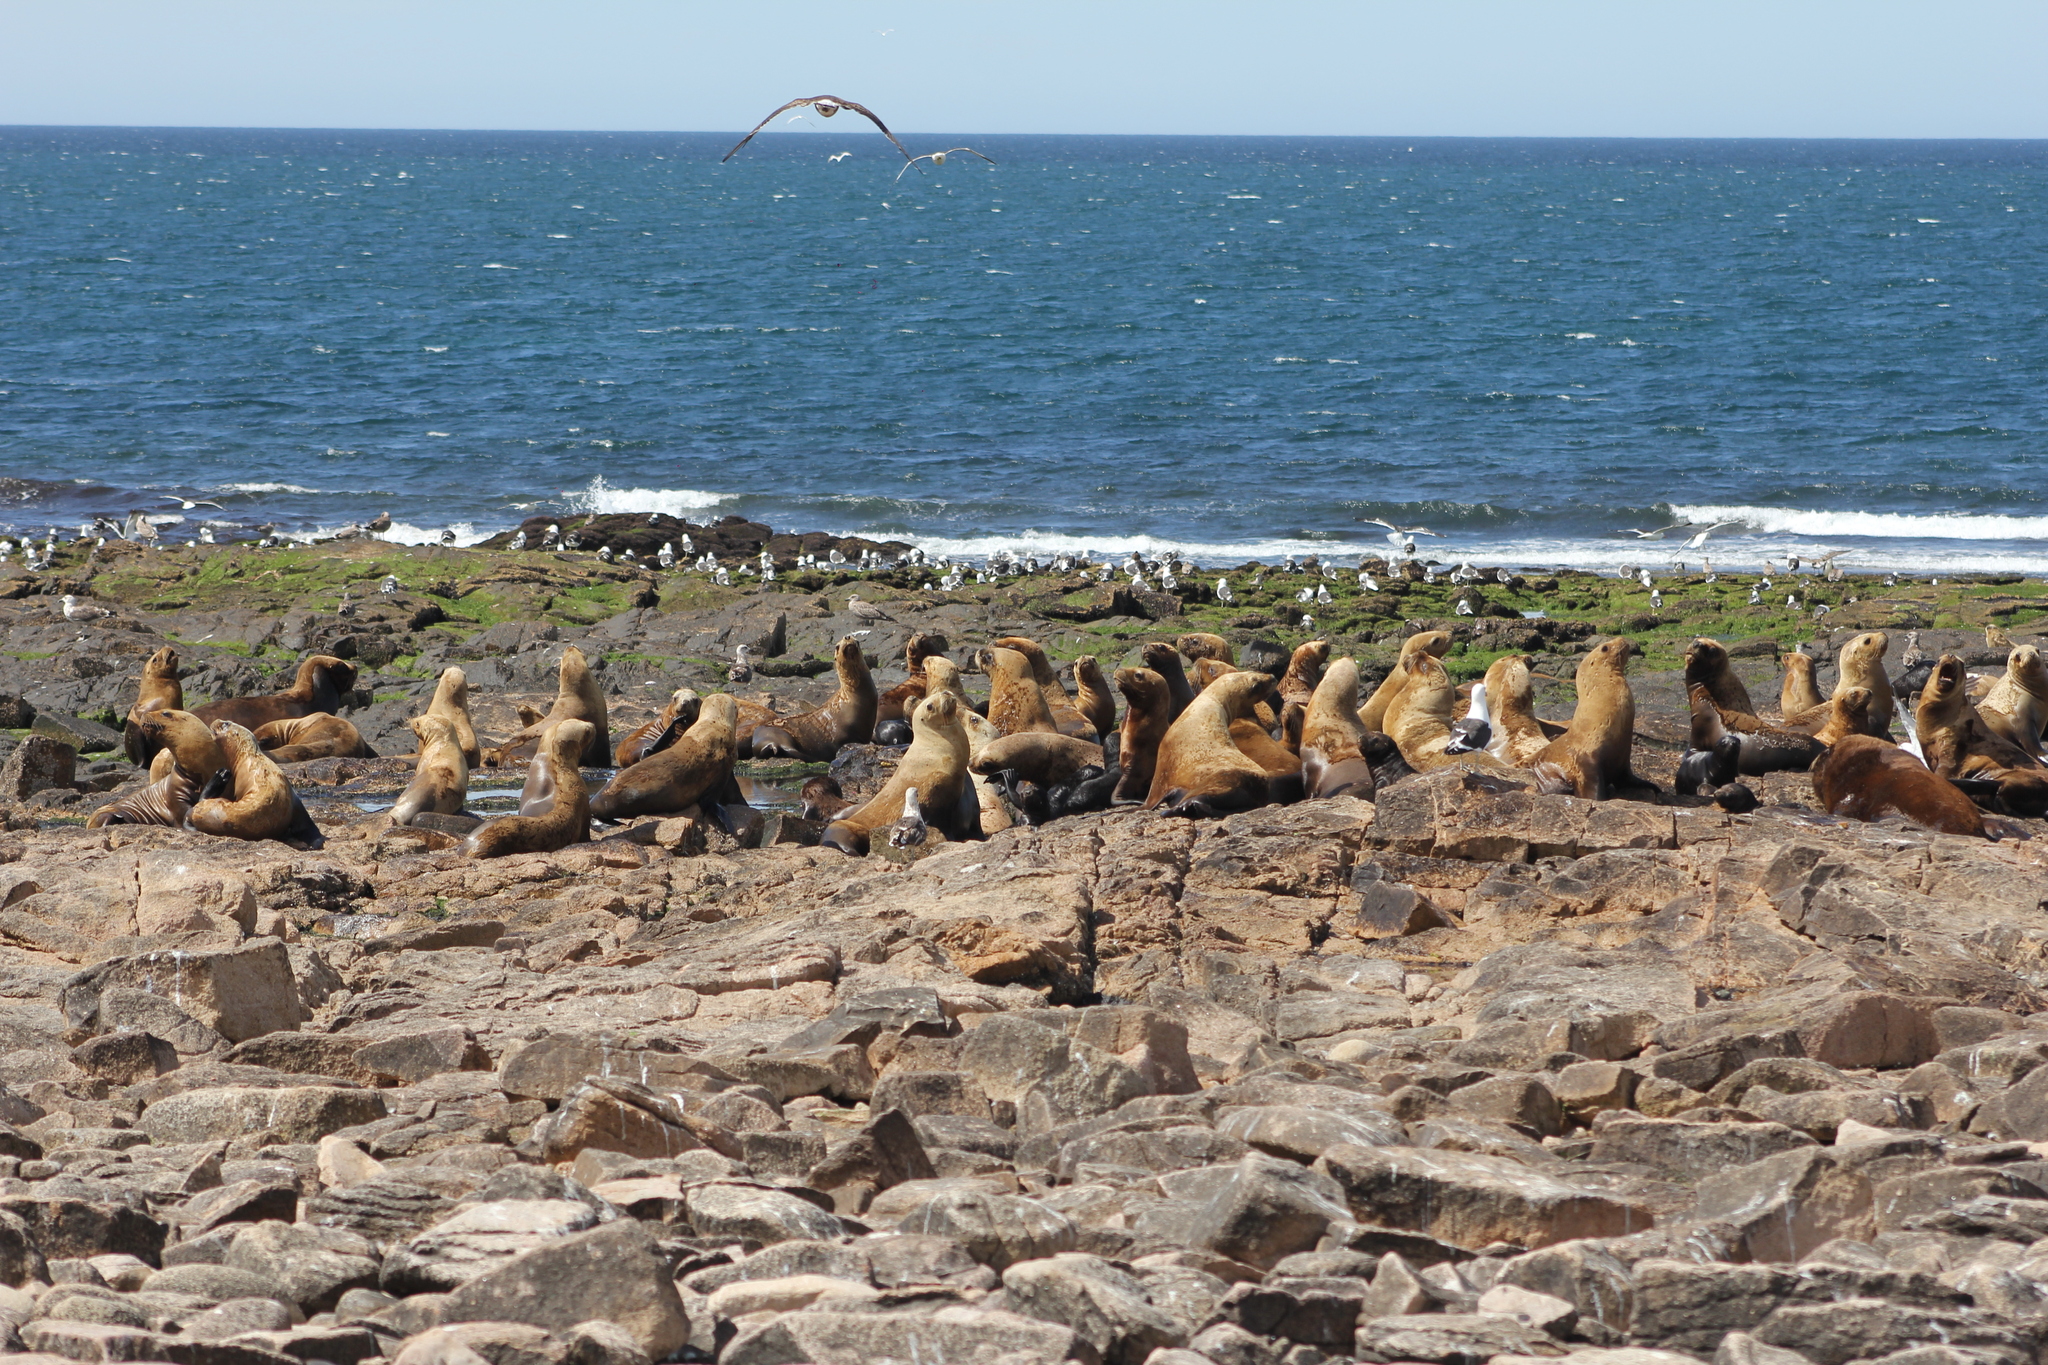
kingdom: Animalia
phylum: Chordata
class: Mammalia
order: Carnivora
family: Otariidae
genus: Otaria
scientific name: Otaria byronia
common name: South american sea lion
